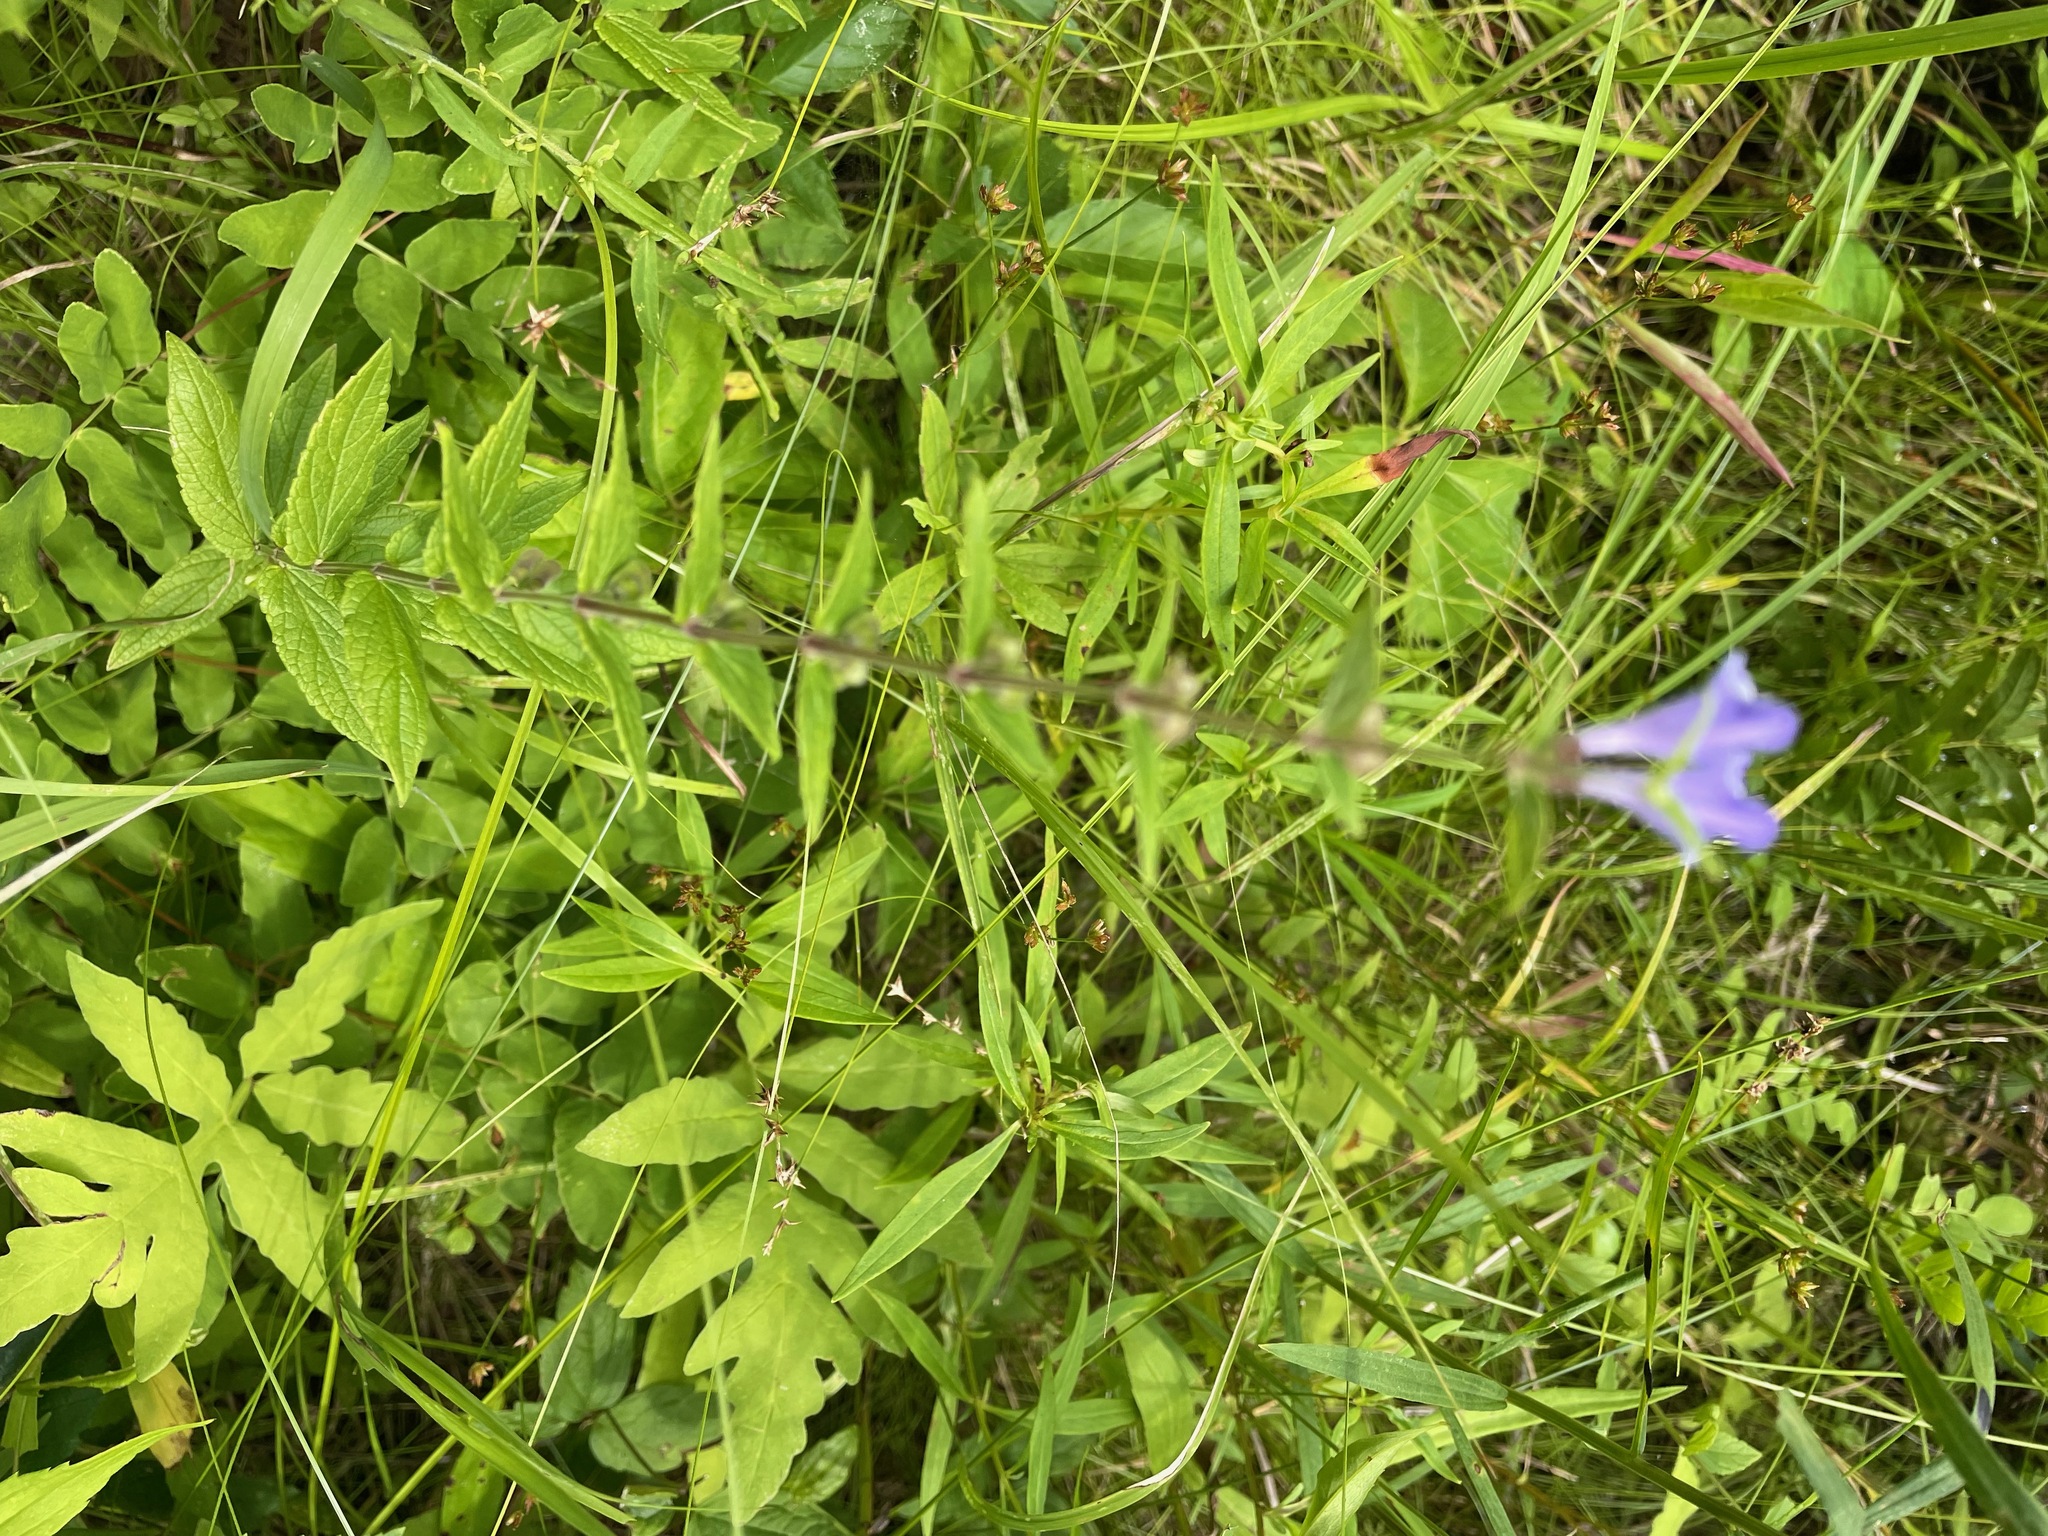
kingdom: Plantae
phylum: Tracheophyta
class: Magnoliopsida
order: Lamiales
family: Lamiaceae
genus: Scutellaria
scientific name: Scutellaria galericulata
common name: Skullcap
